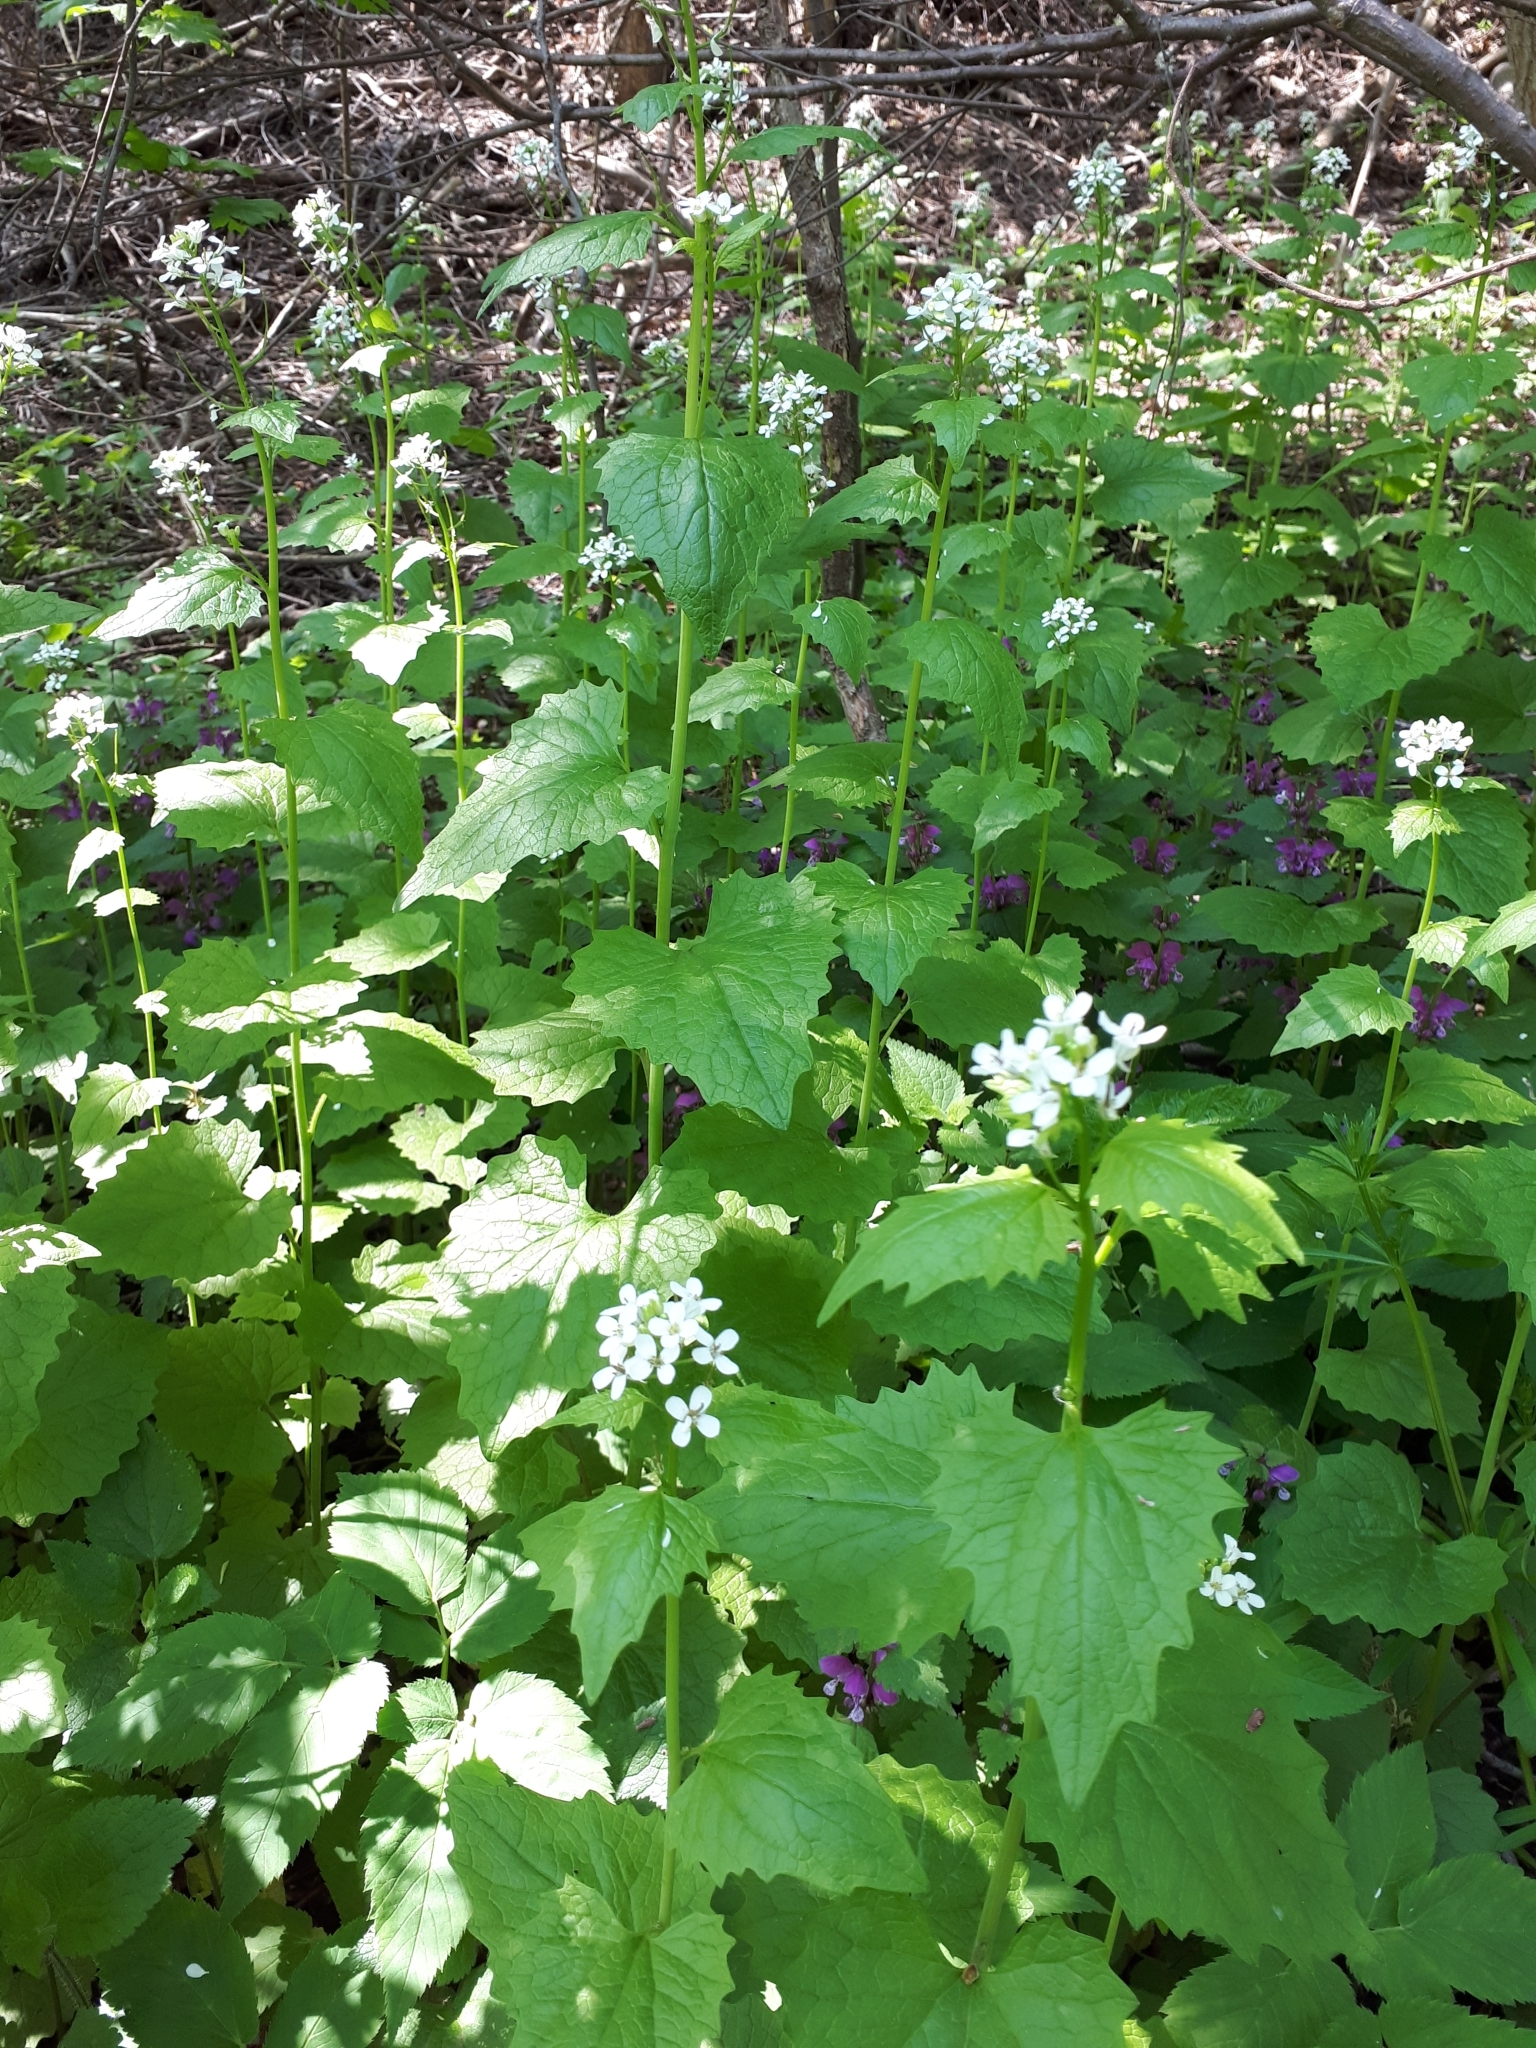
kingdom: Plantae
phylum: Tracheophyta
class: Magnoliopsida
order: Brassicales
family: Brassicaceae
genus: Alliaria
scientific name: Alliaria petiolata
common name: Garlic mustard
